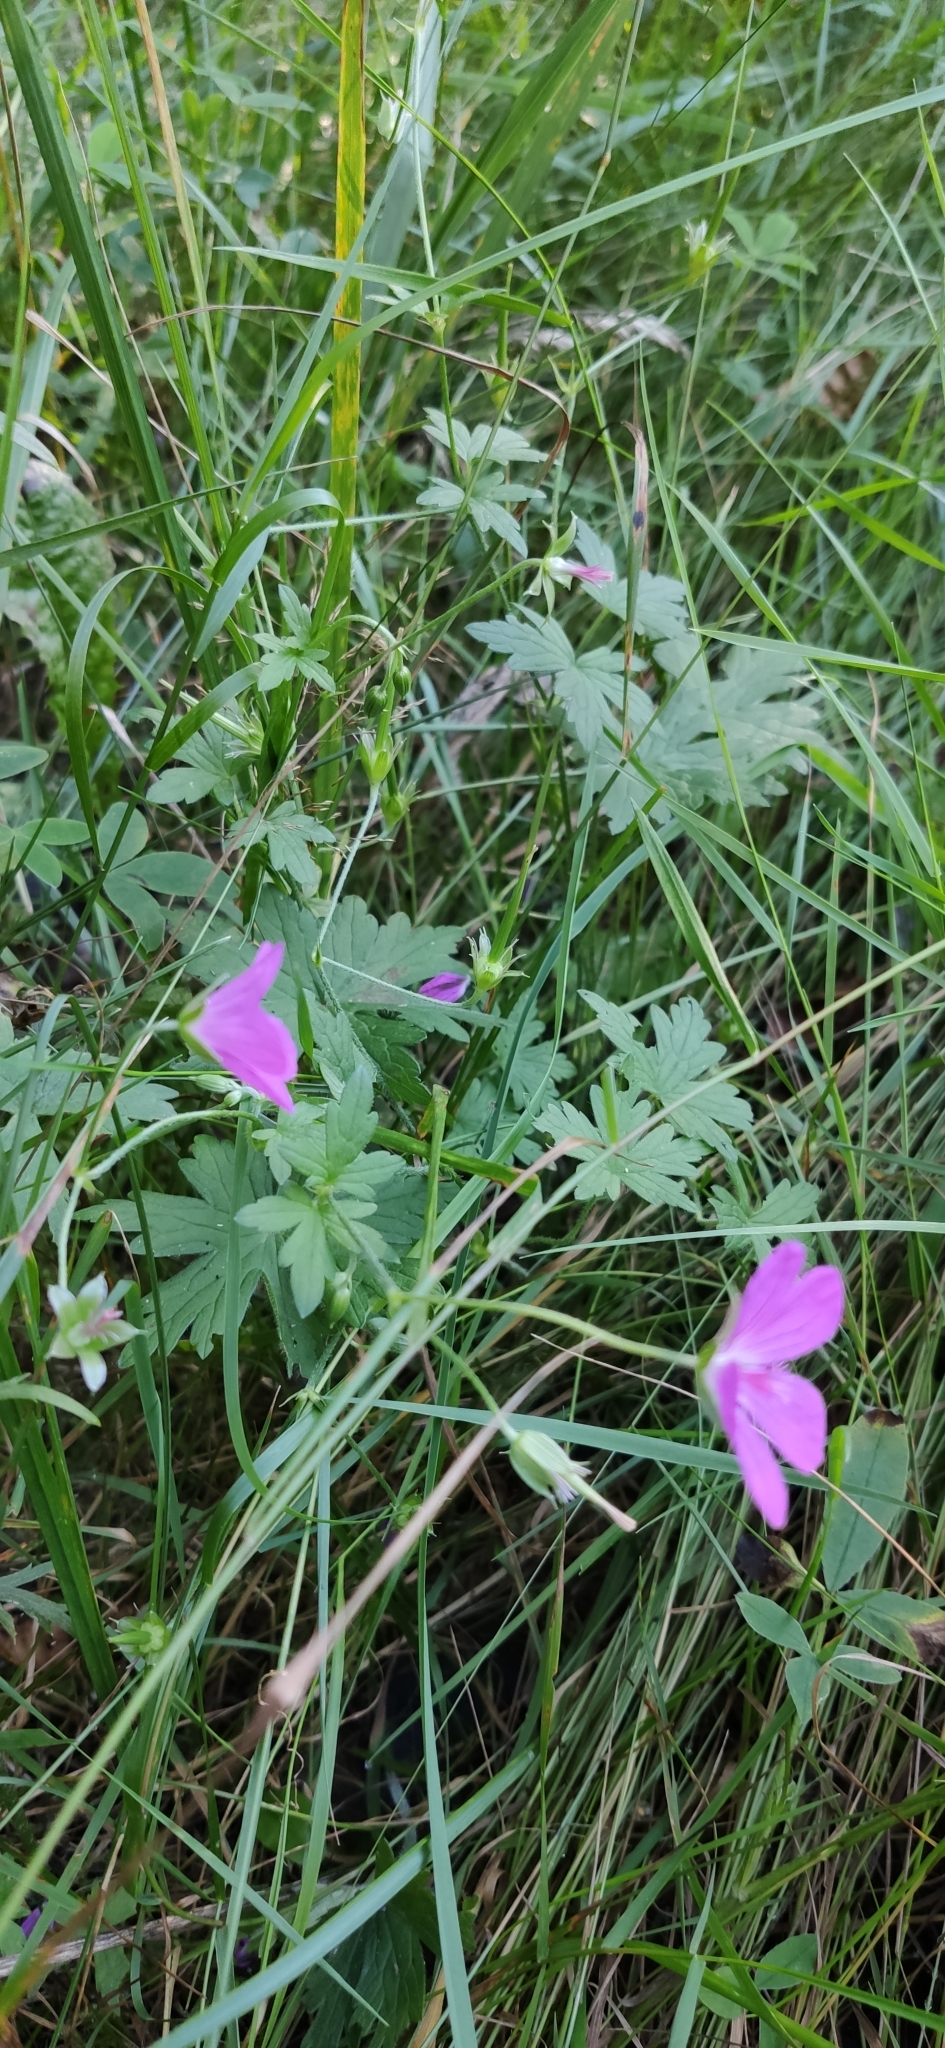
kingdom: Plantae
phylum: Tracheophyta
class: Magnoliopsida
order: Geraniales
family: Geraniaceae
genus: Geranium
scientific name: Geranium palustre
